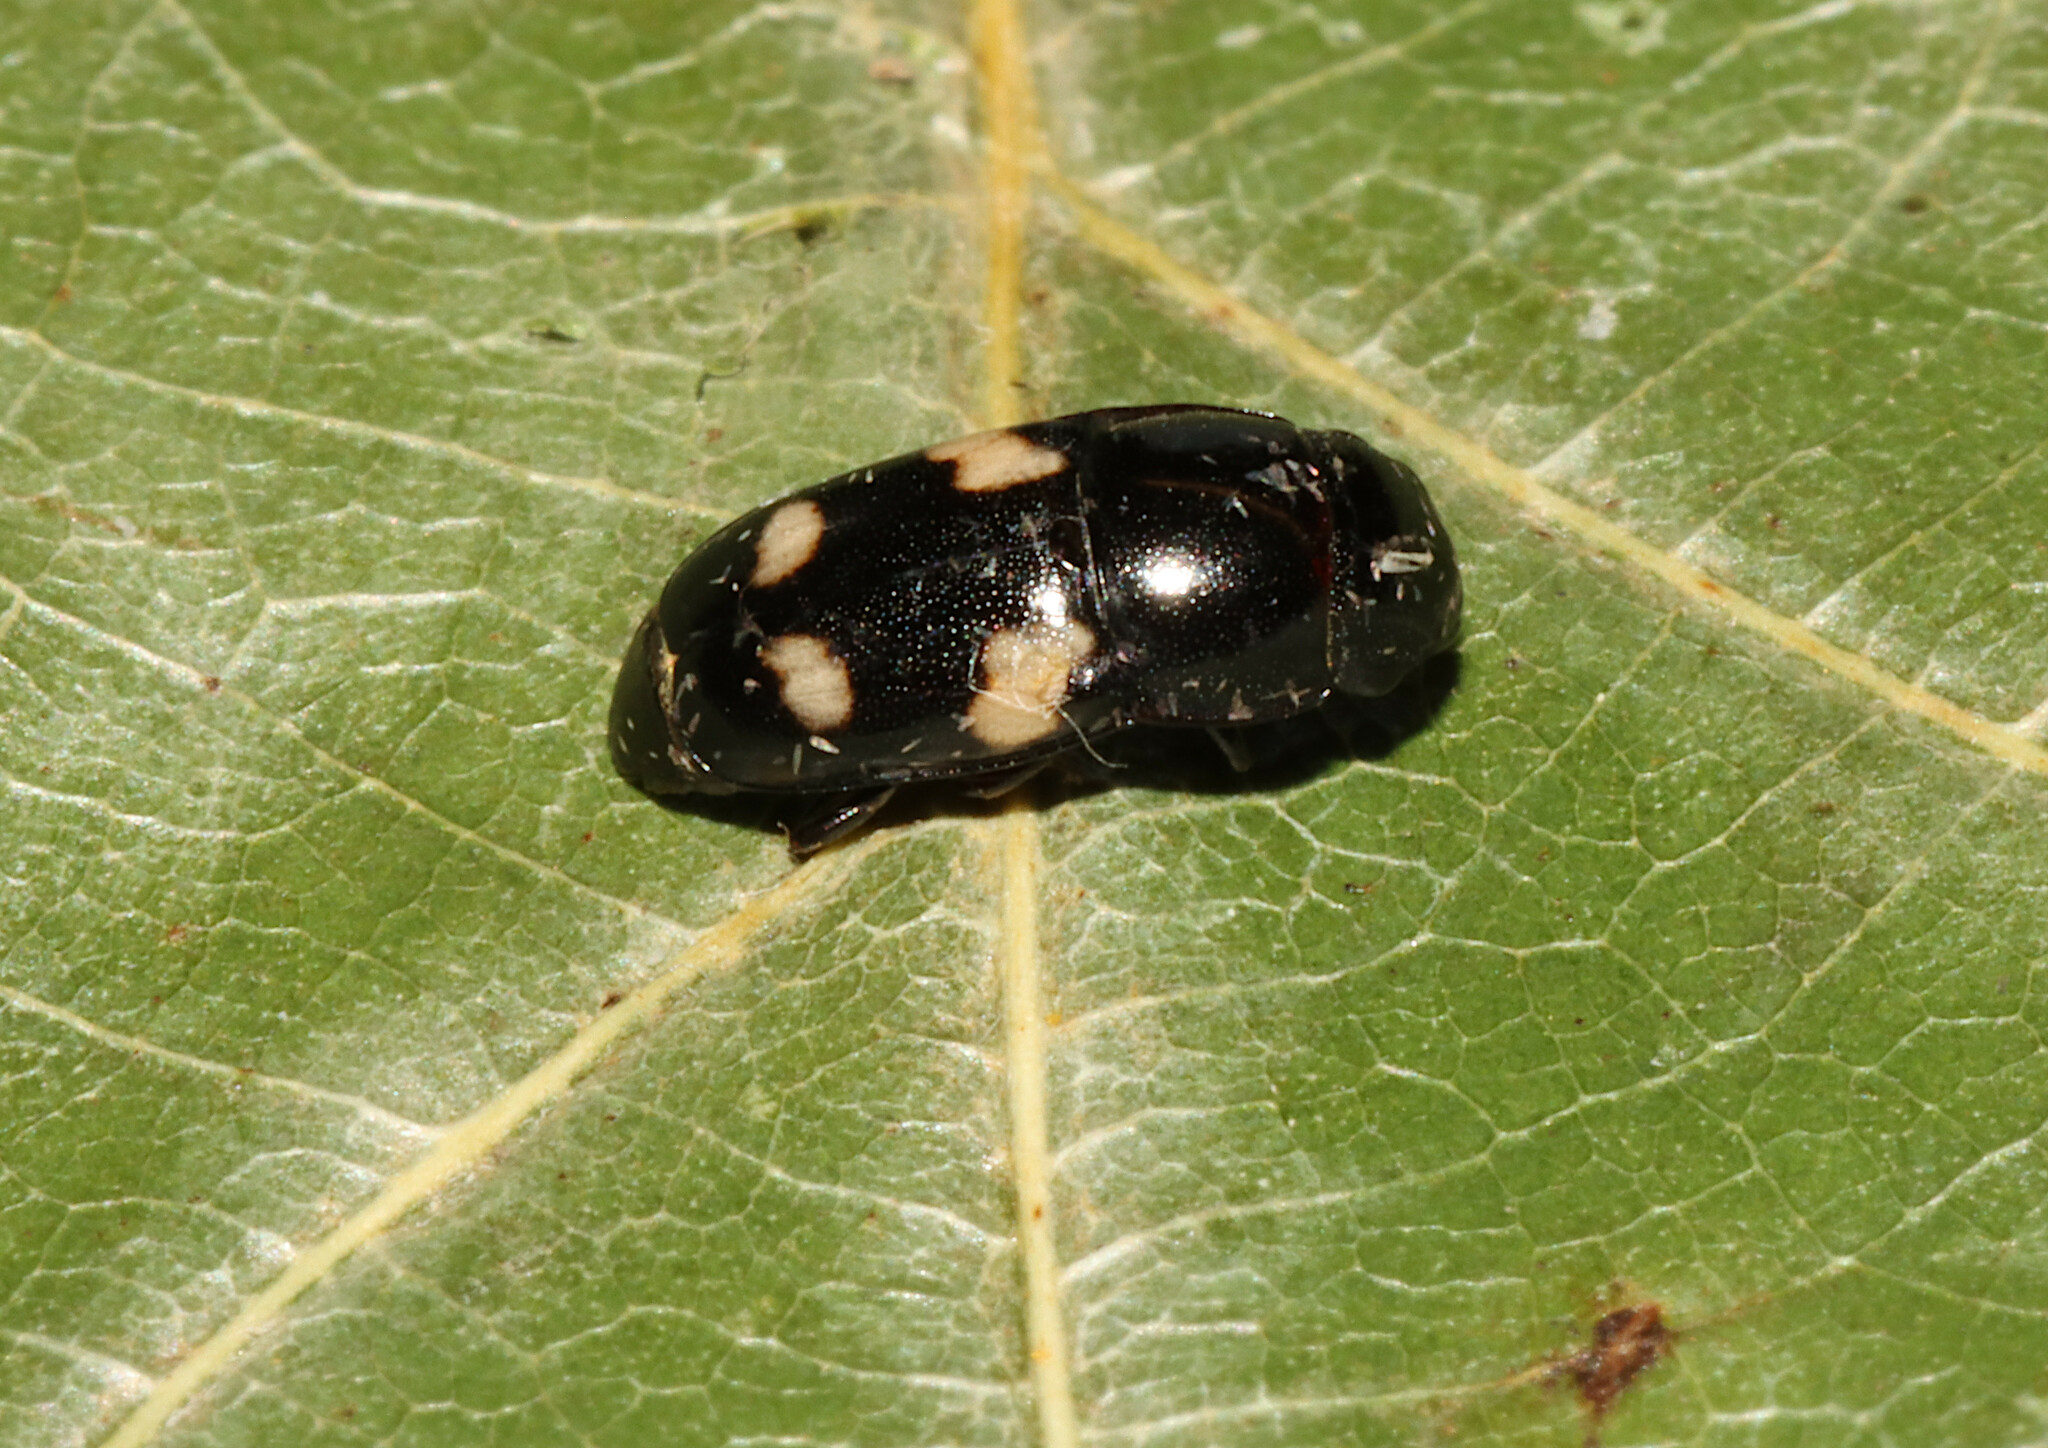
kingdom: Animalia
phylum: Arthropoda
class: Insecta
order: Coleoptera
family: Nitidulidae
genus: Glischrochilus
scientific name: Glischrochilus quadrisignatus
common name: Picnic beetle
